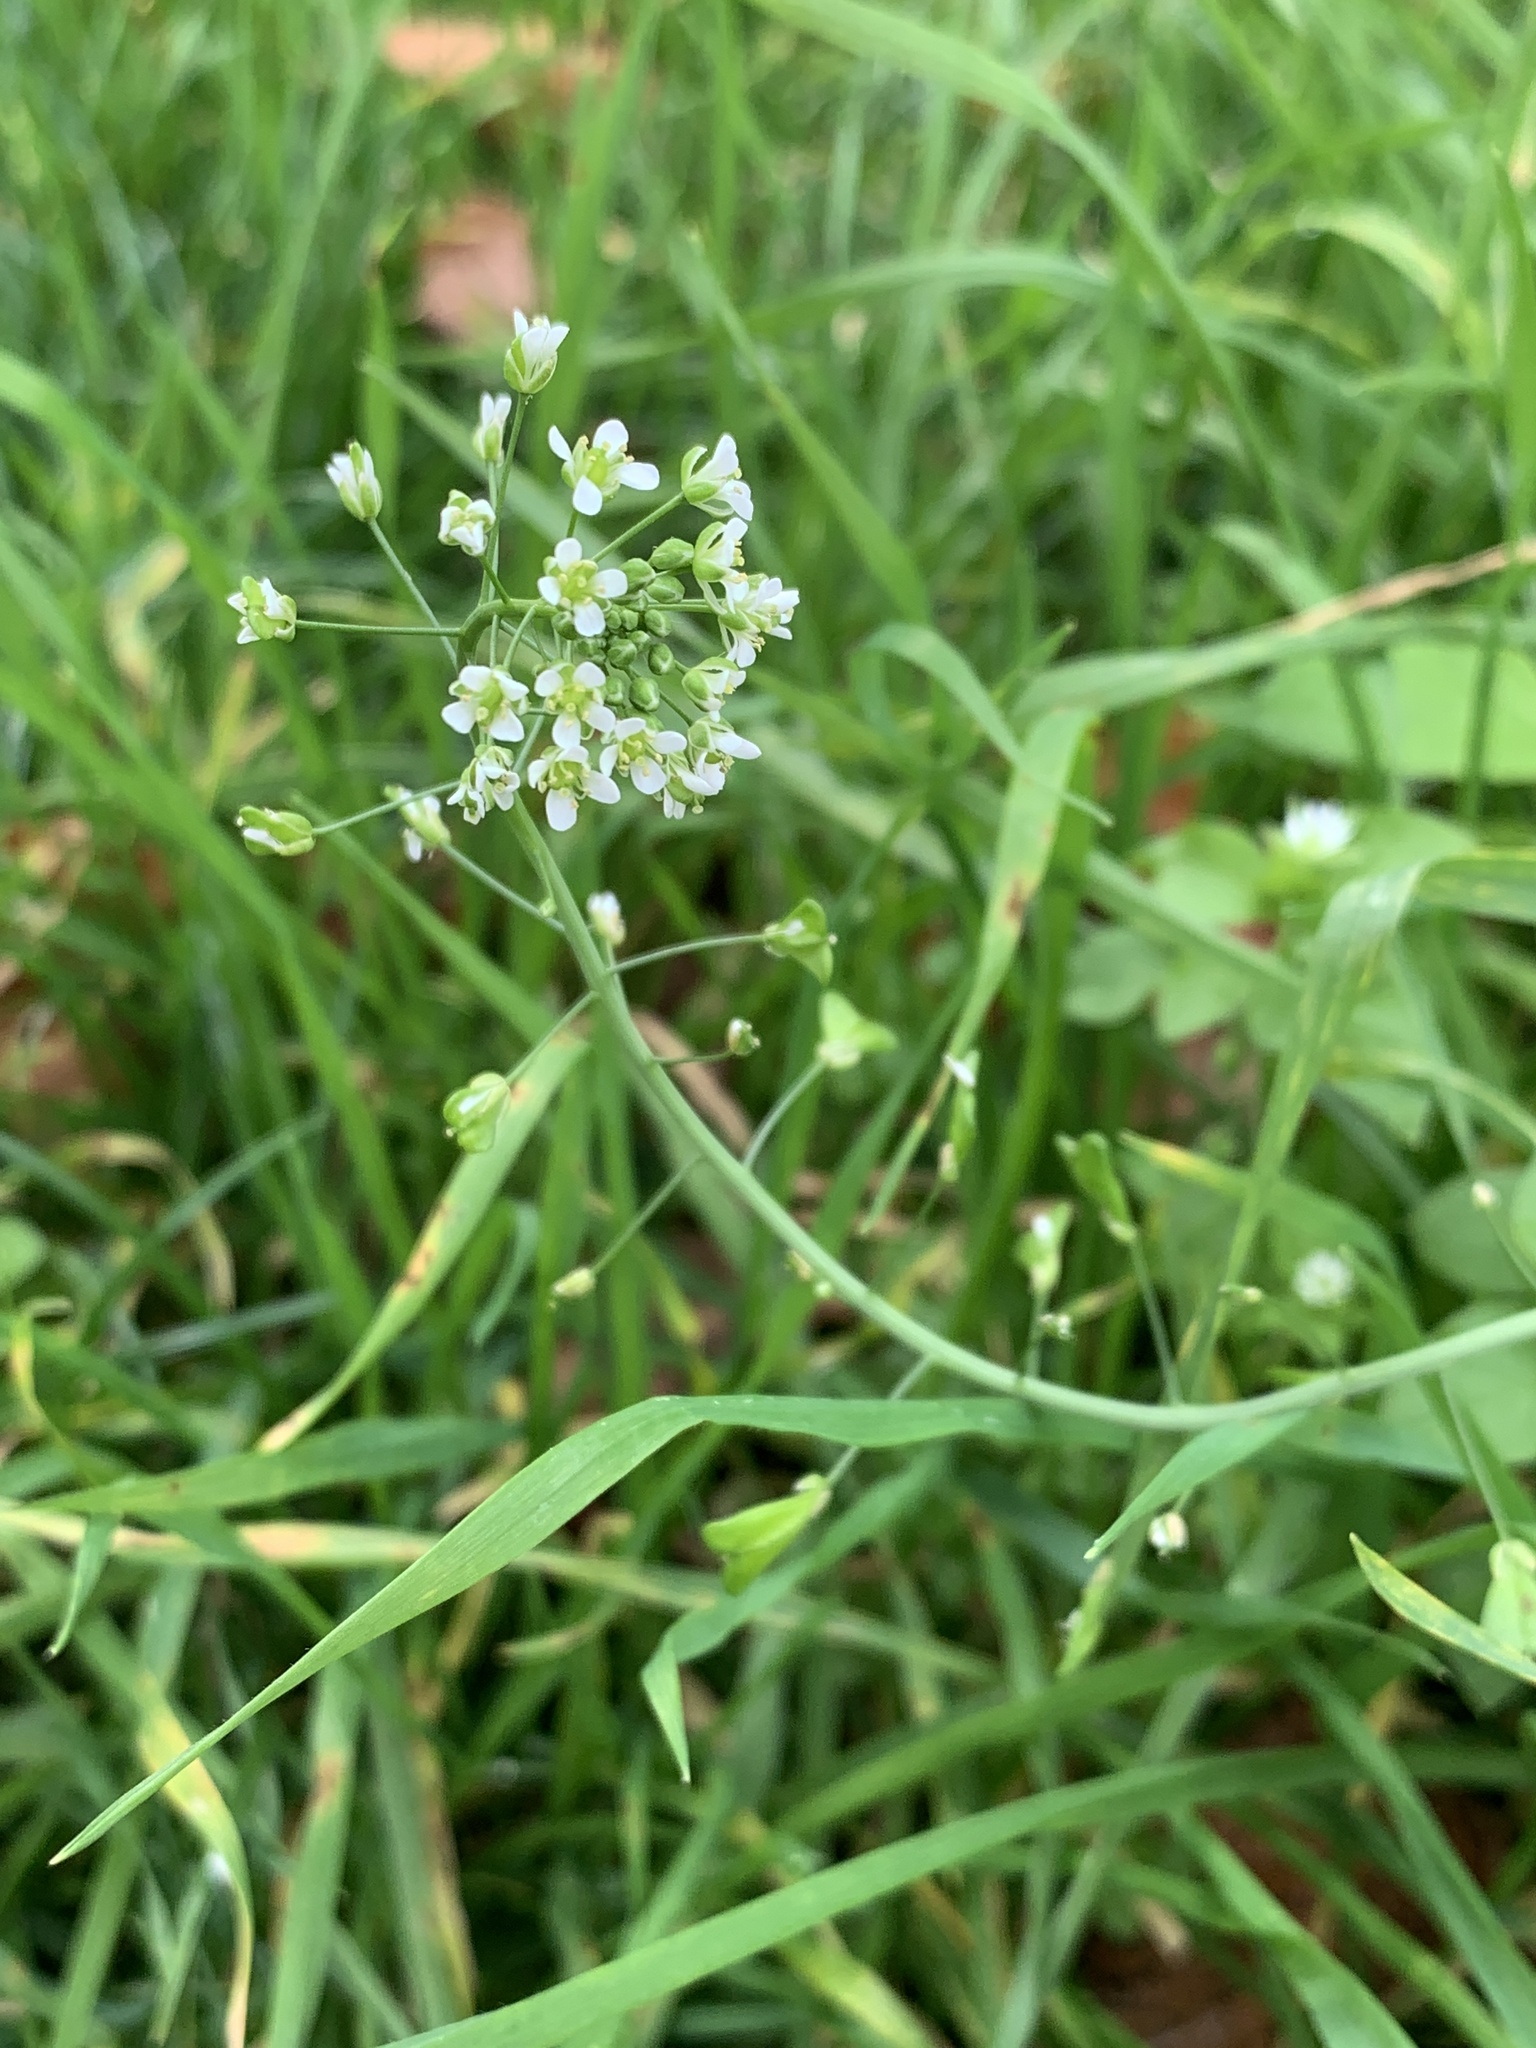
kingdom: Plantae
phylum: Tracheophyta
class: Magnoliopsida
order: Brassicales
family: Brassicaceae
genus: Capsella
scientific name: Capsella bursa-pastoris
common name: Shepherd's purse
